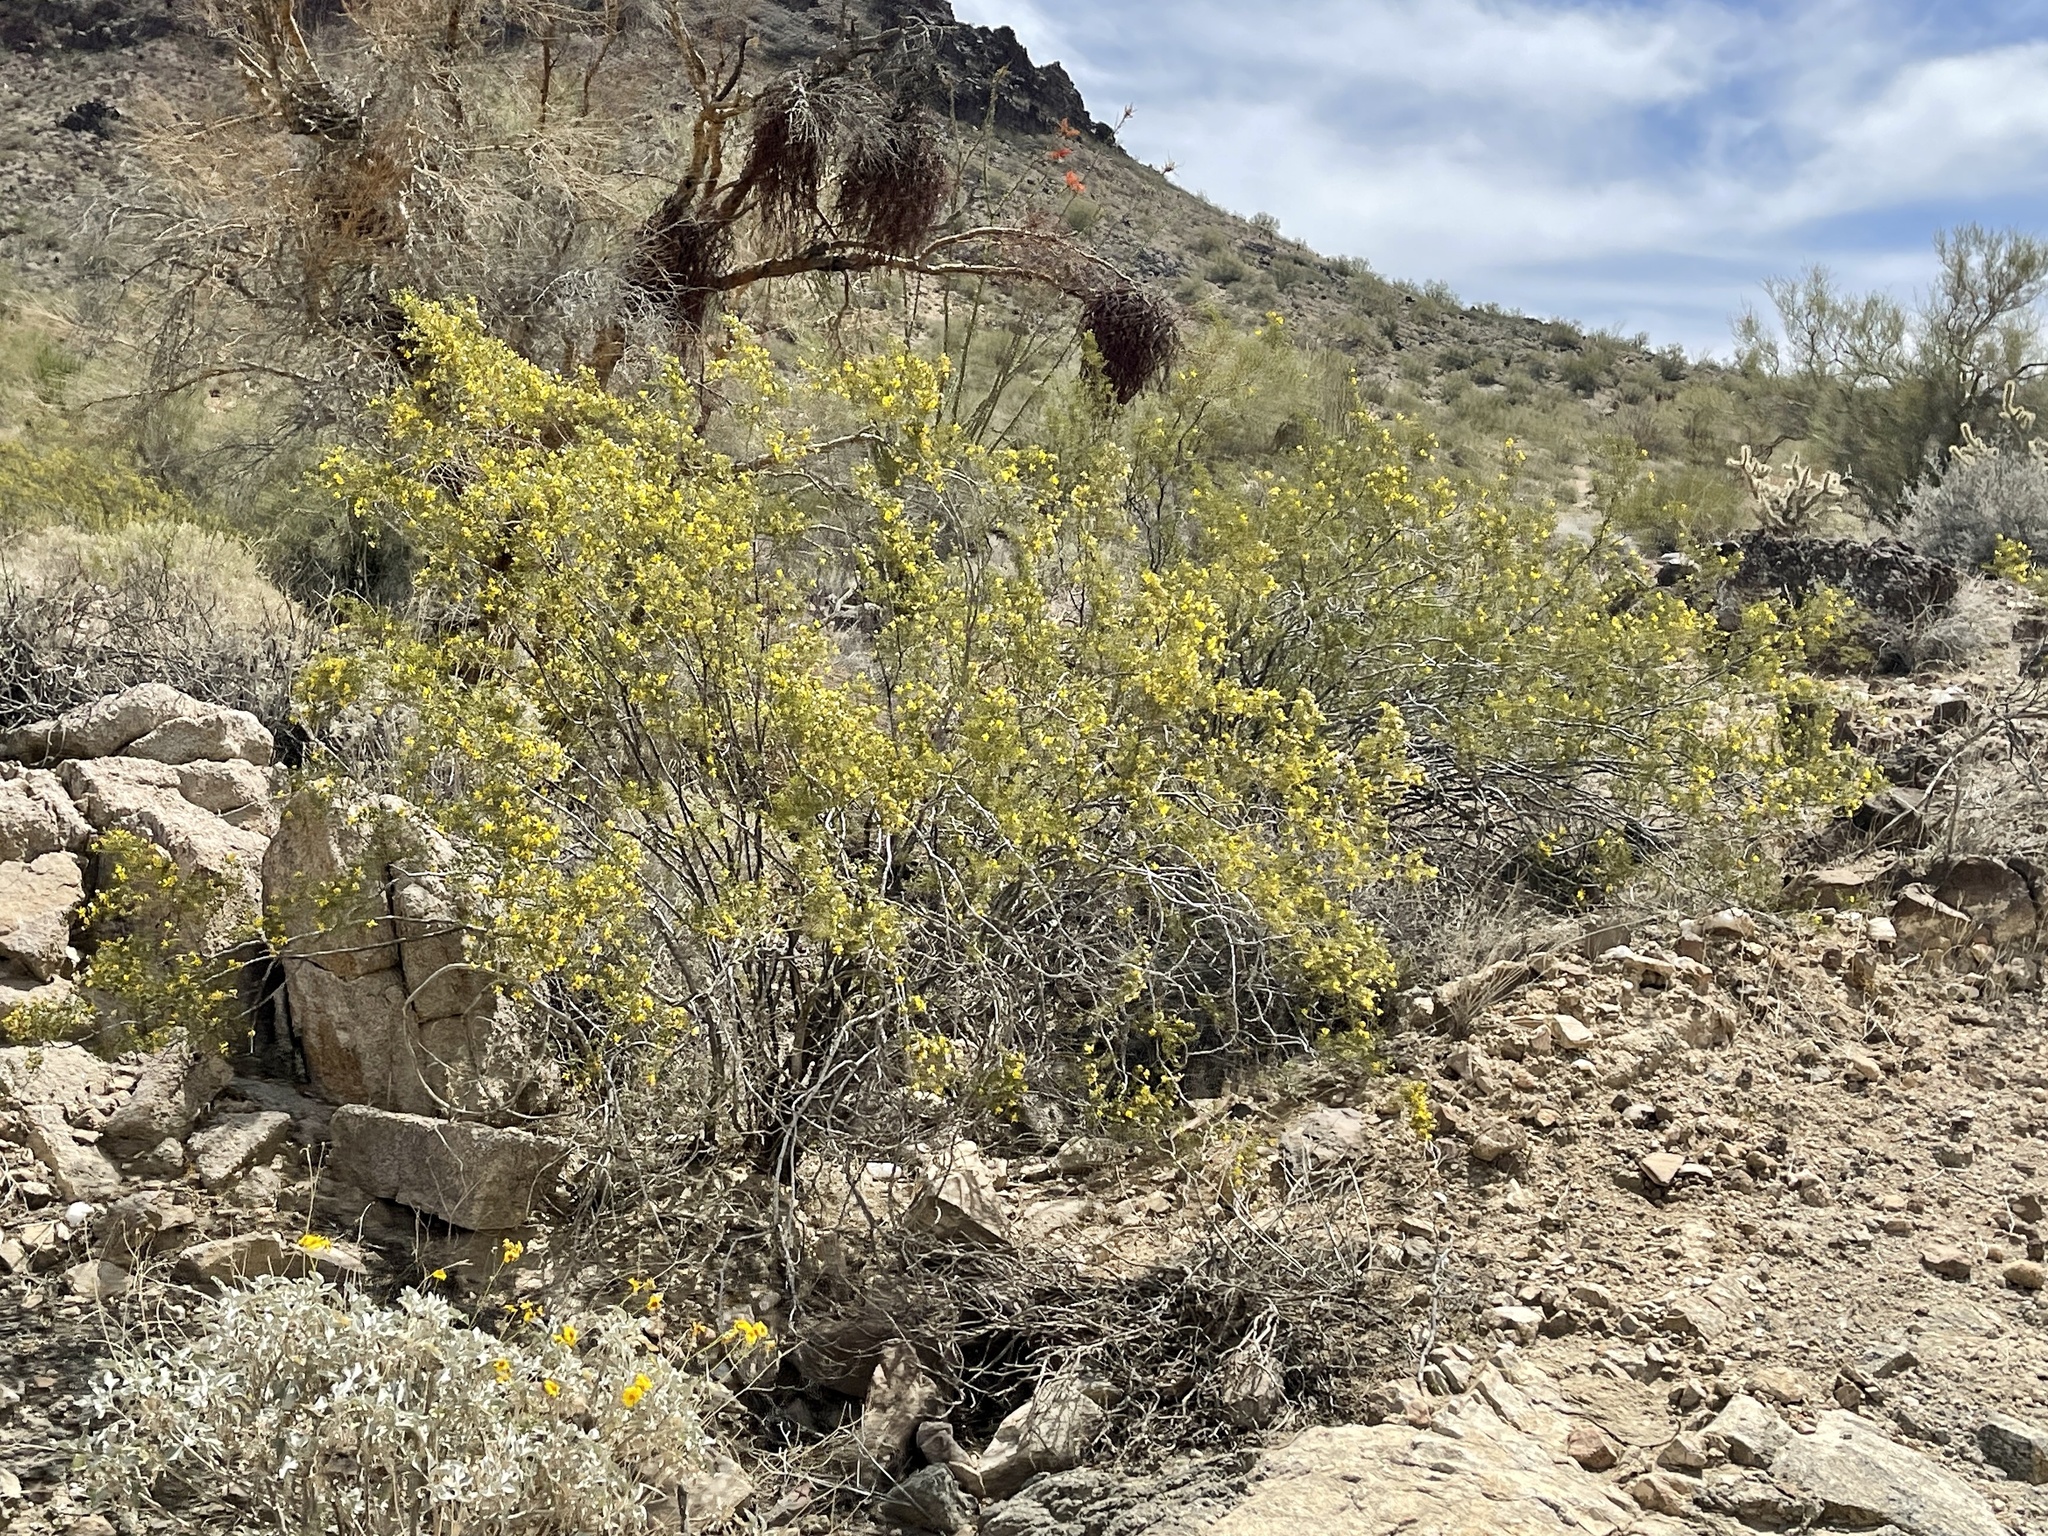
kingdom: Plantae
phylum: Tracheophyta
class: Magnoliopsida
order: Zygophyllales
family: Zygophyllaceae
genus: Larrea
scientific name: Larrea tridentata
